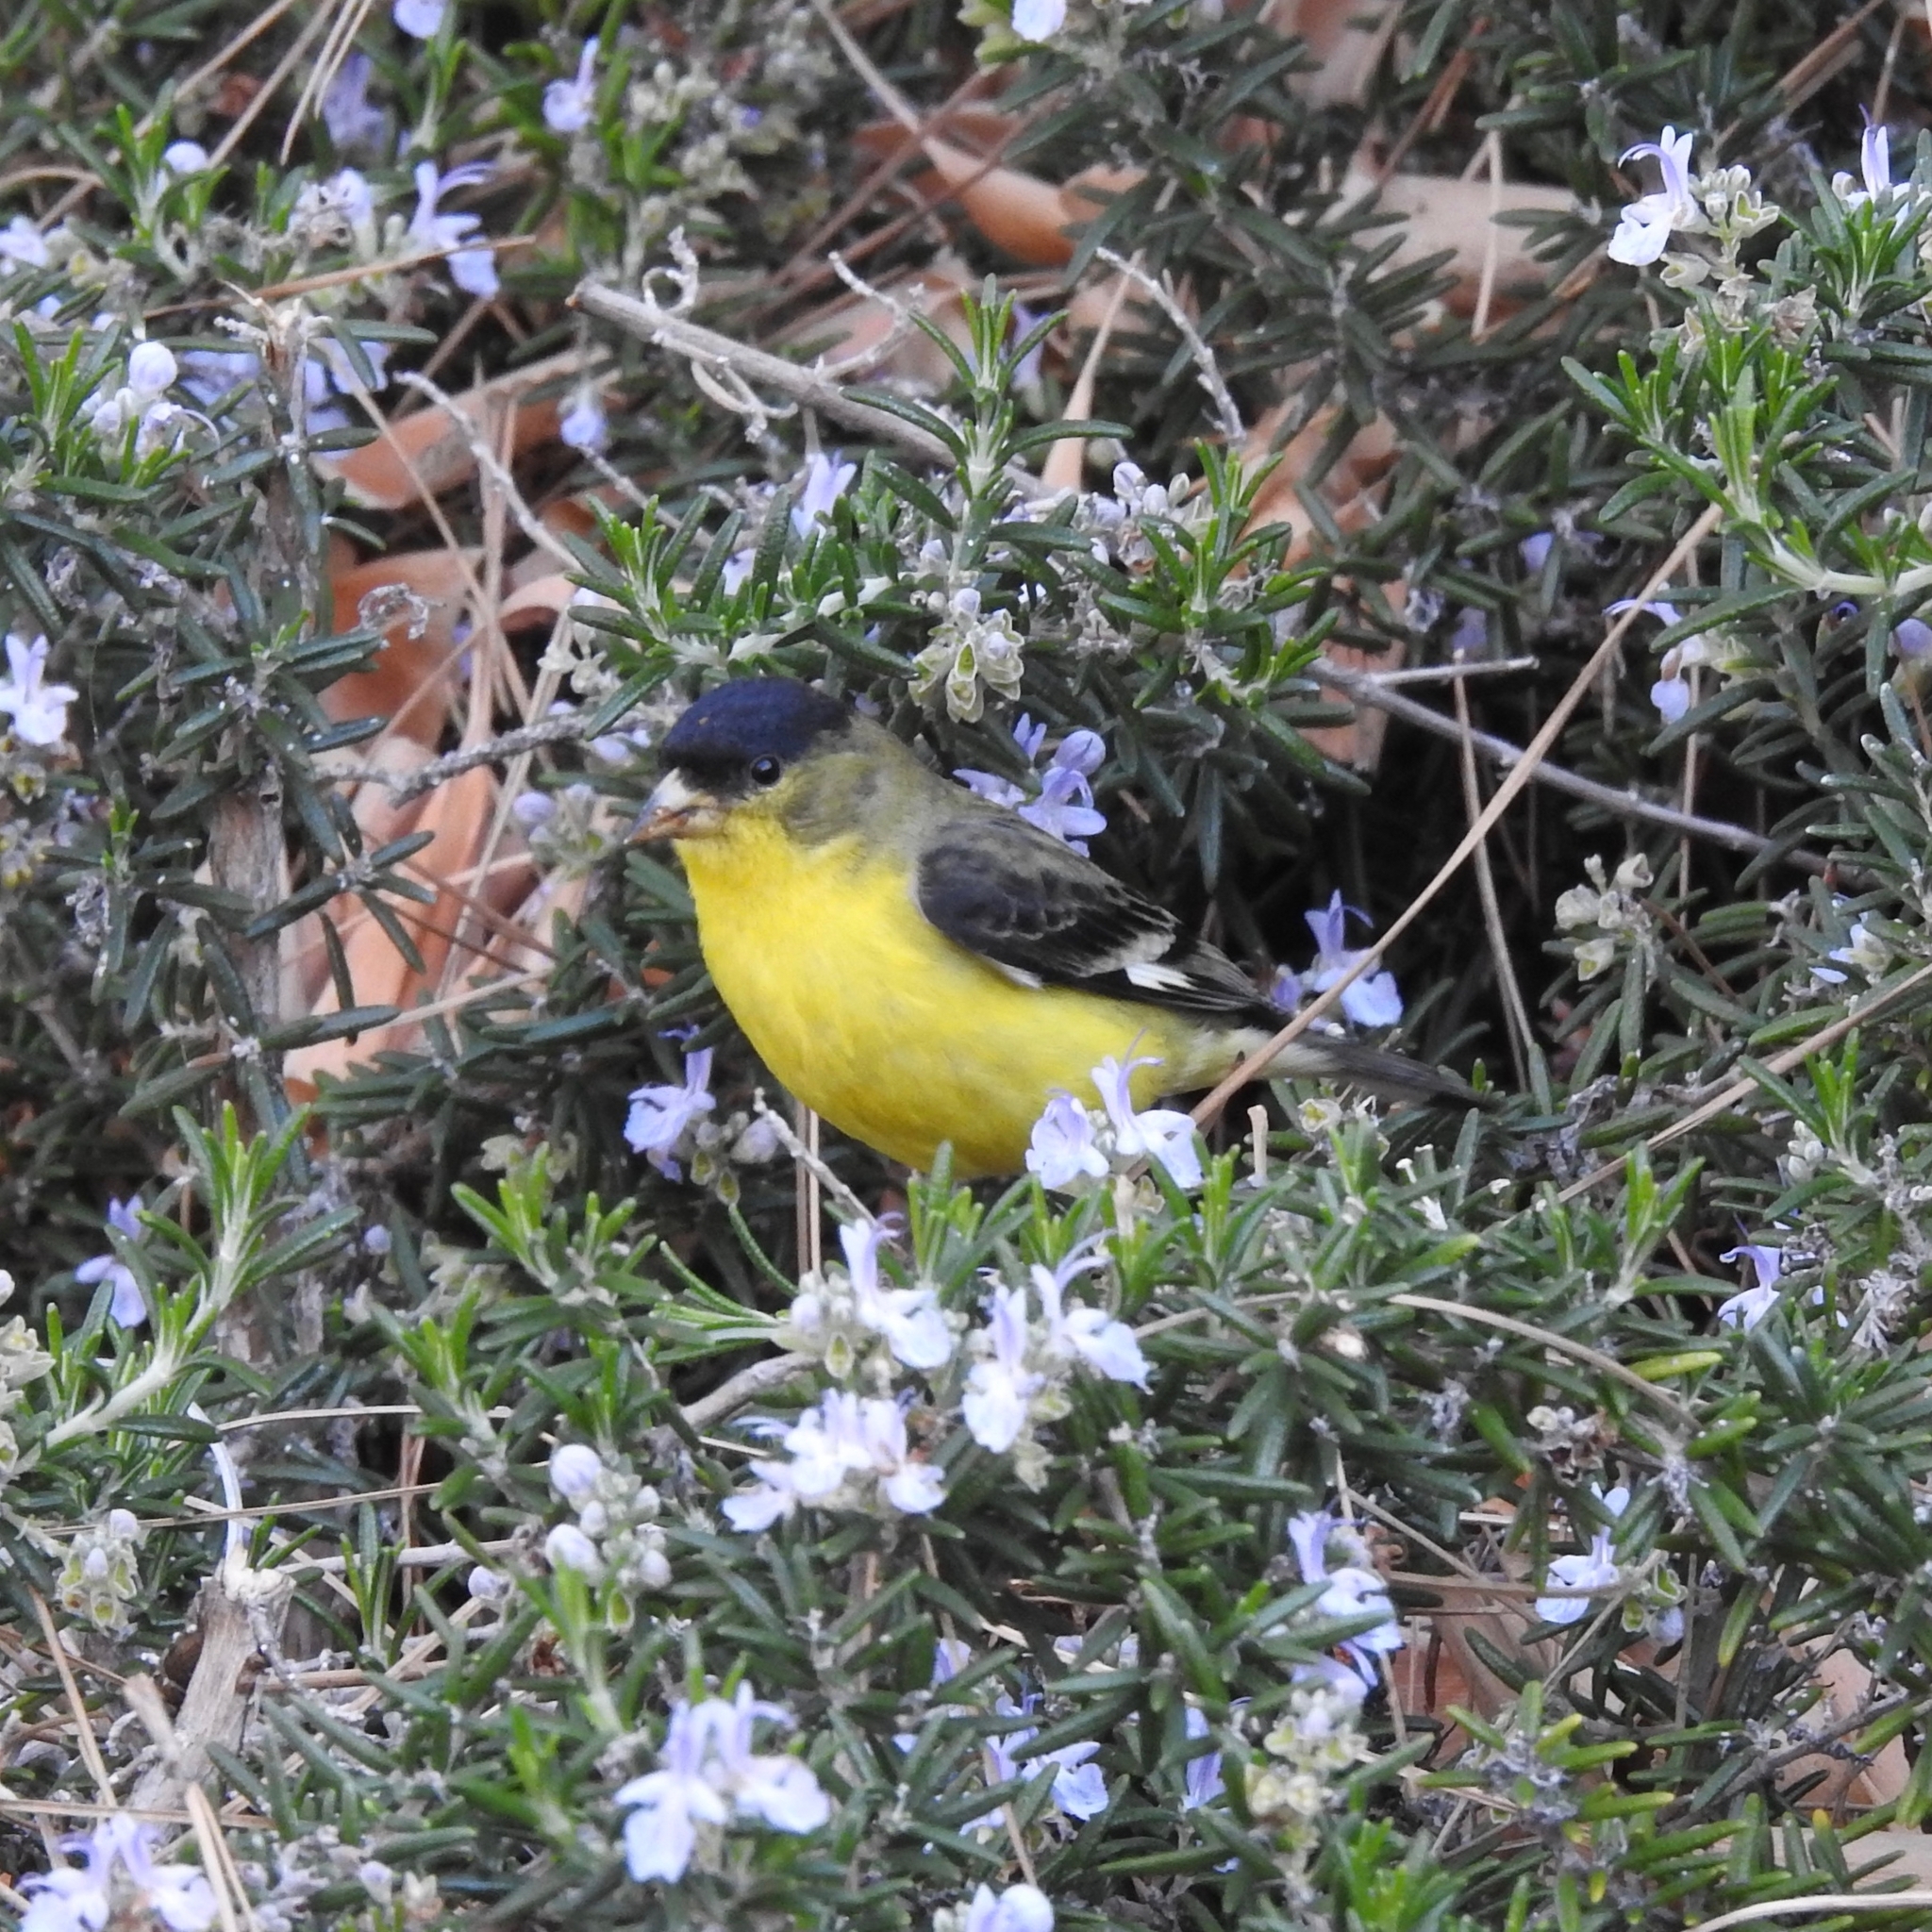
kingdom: Animalia
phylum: Chordata
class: Aves
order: Passeriformes
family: Fringillidae
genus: Spinus
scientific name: Spinus psaltria
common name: Lesser goldfinch
